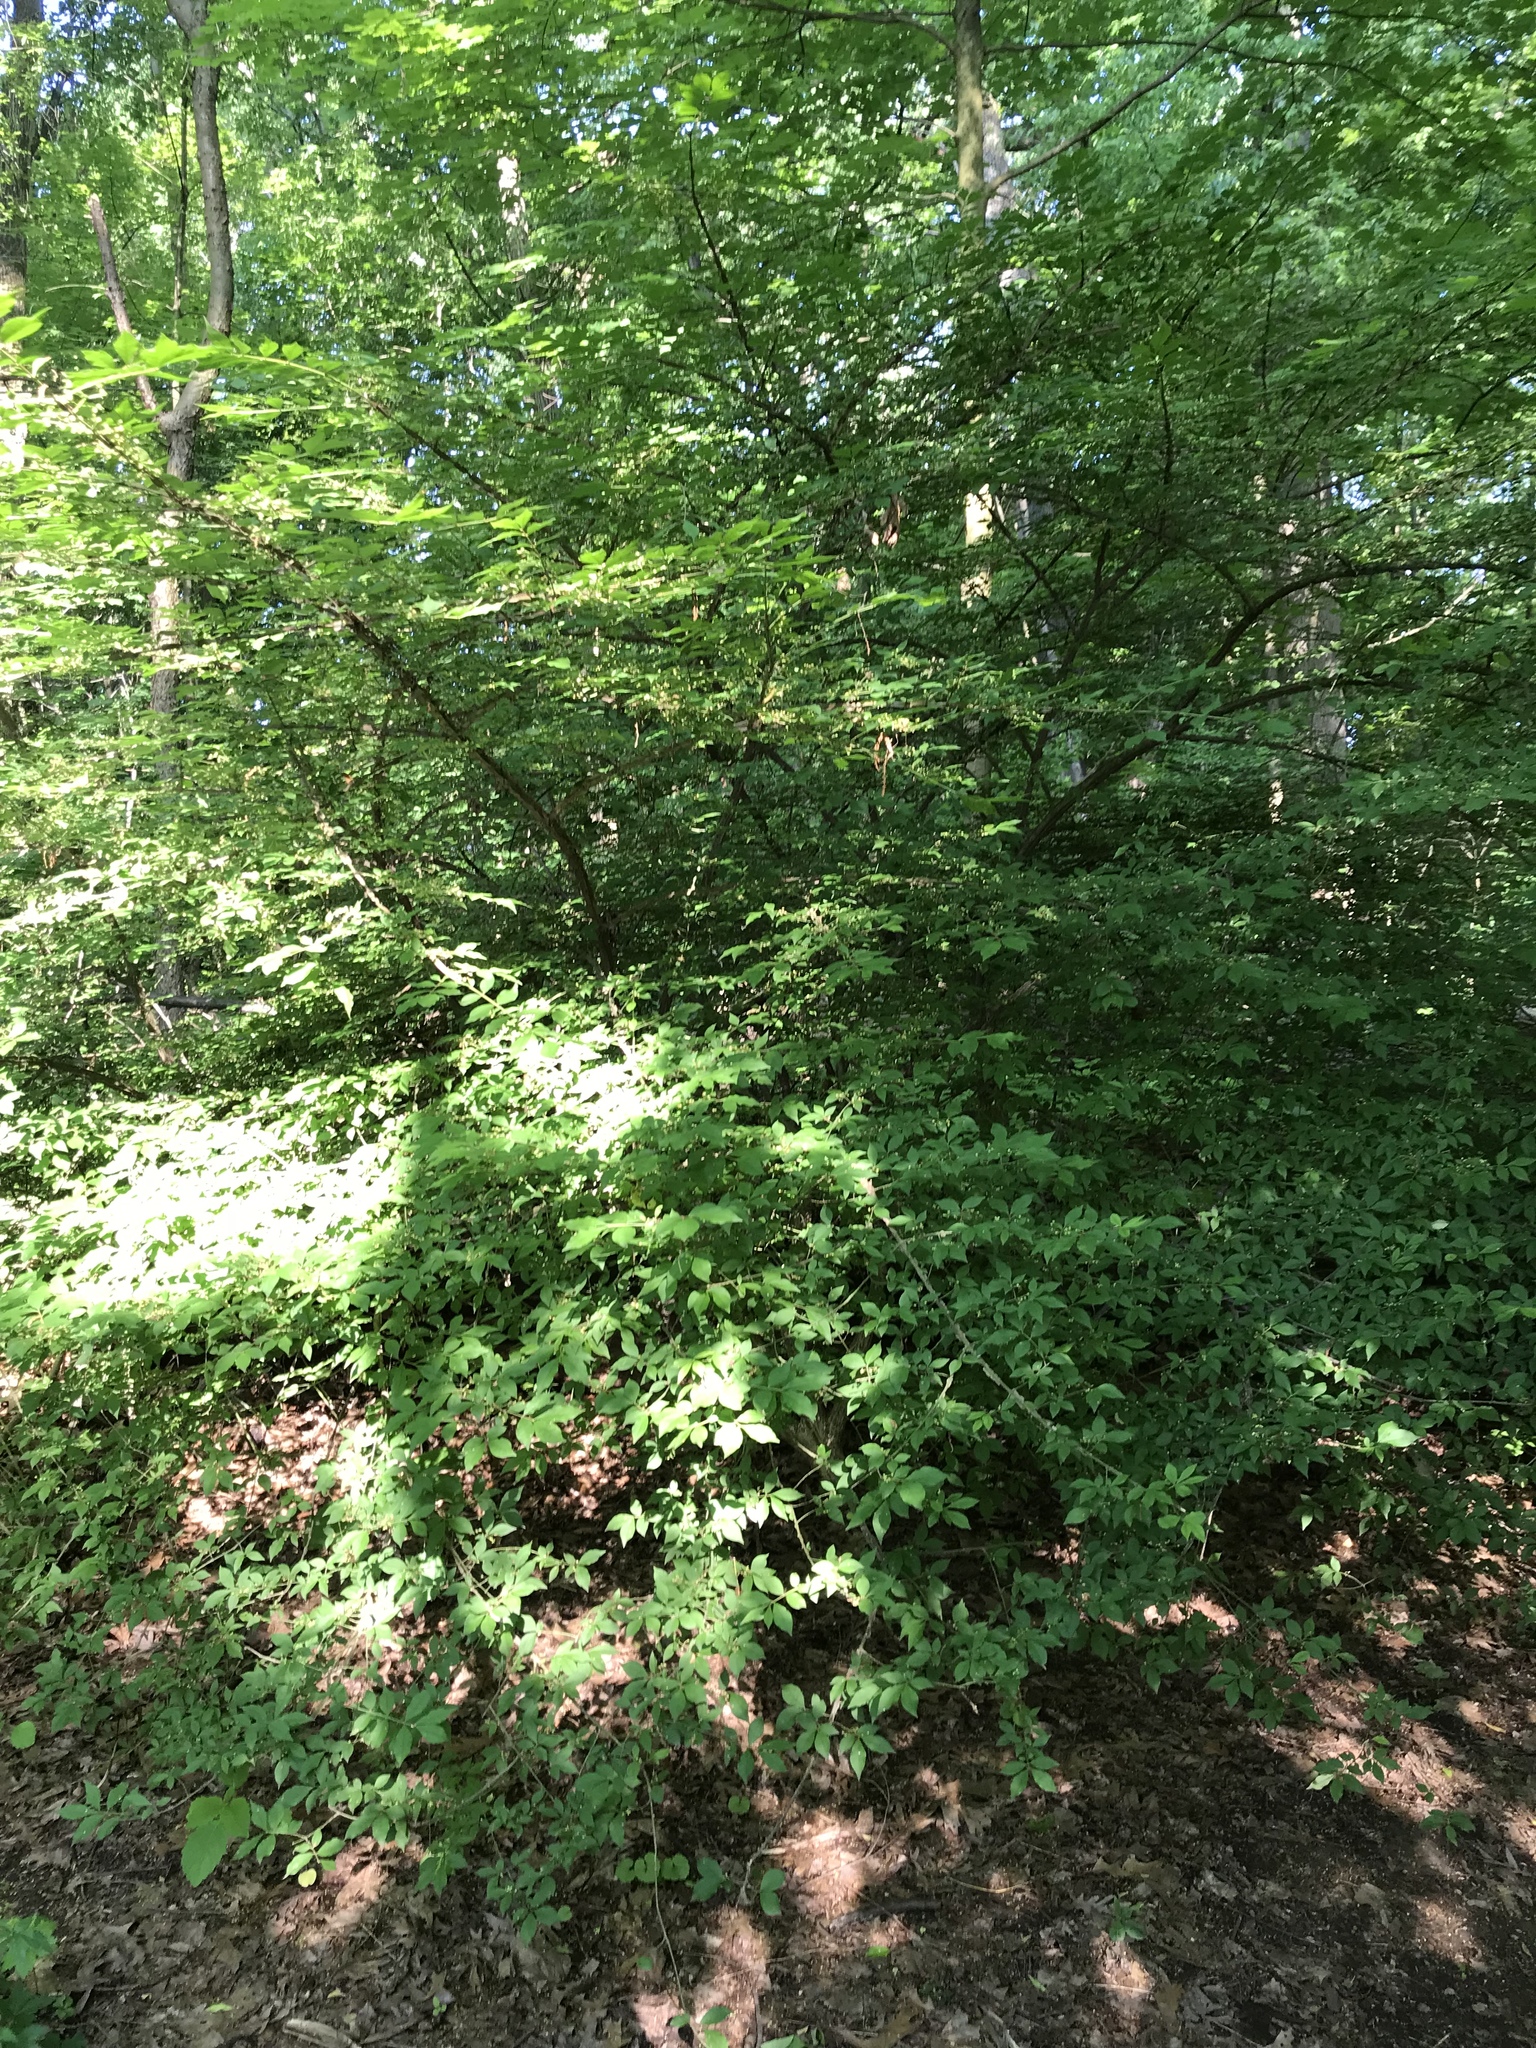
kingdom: Plantae
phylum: Tracheophyta
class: Magnoliopsida
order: Celastrales
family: Celastraceae
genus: Euonymus
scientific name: Euonymus alatus
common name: Winged euonymus
